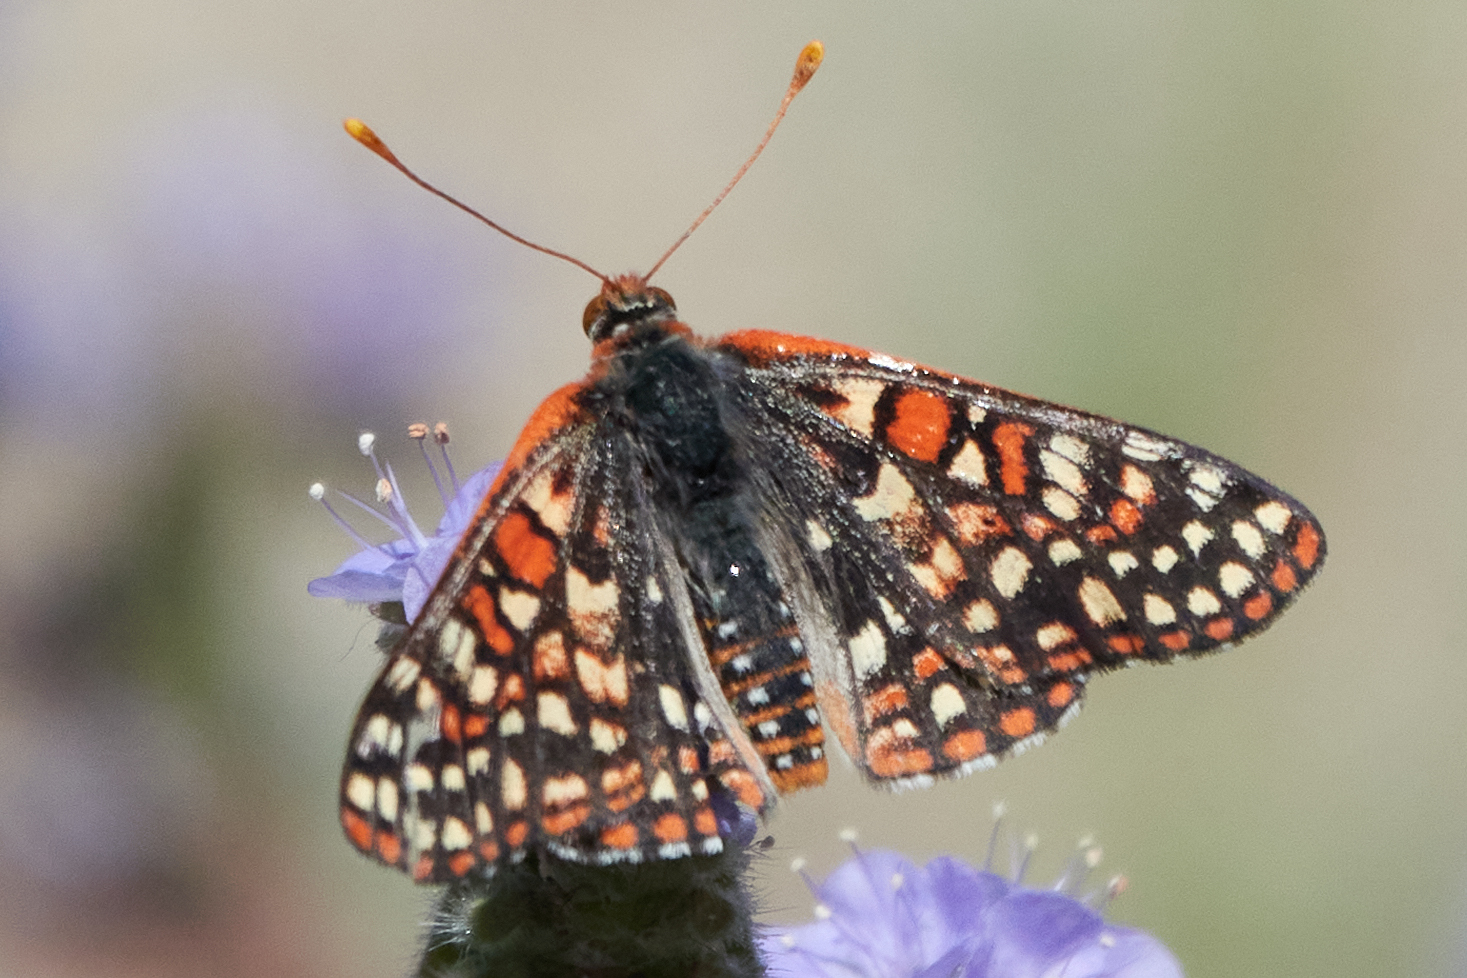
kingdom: Animalia
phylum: Arthropoda
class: Insecta
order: Lepidoptera
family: Nymphalidae
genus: Occidryas
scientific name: Occidryas chalcedona
